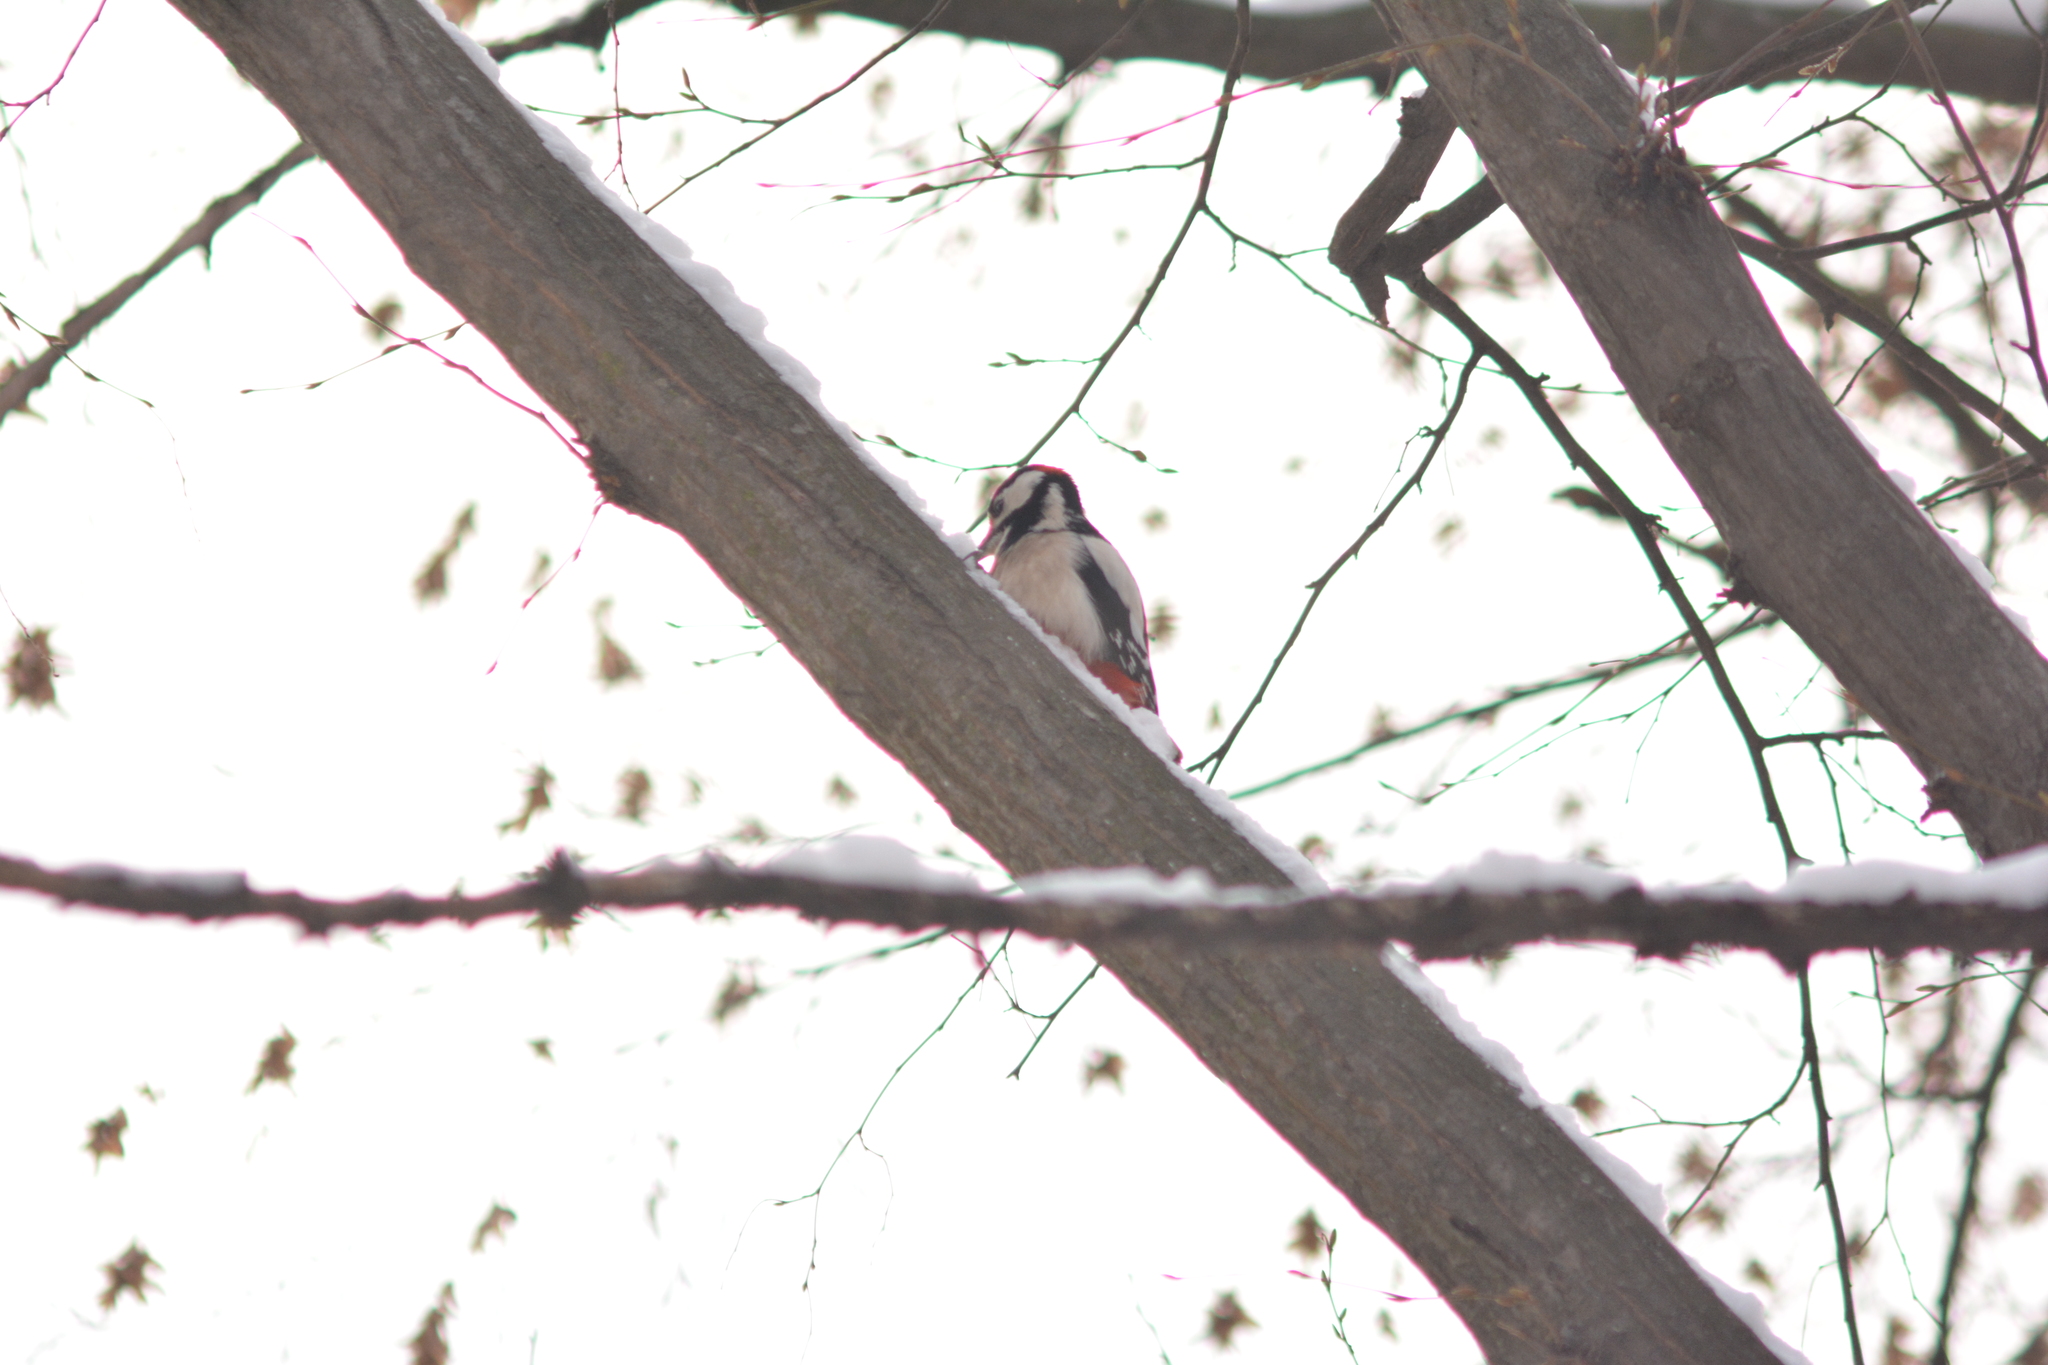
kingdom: Animalia
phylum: Chordata
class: Aves
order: Piciformes
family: Picidae
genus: Dendrocopos
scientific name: Dendrocopos major
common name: Great spotted woodpecker
